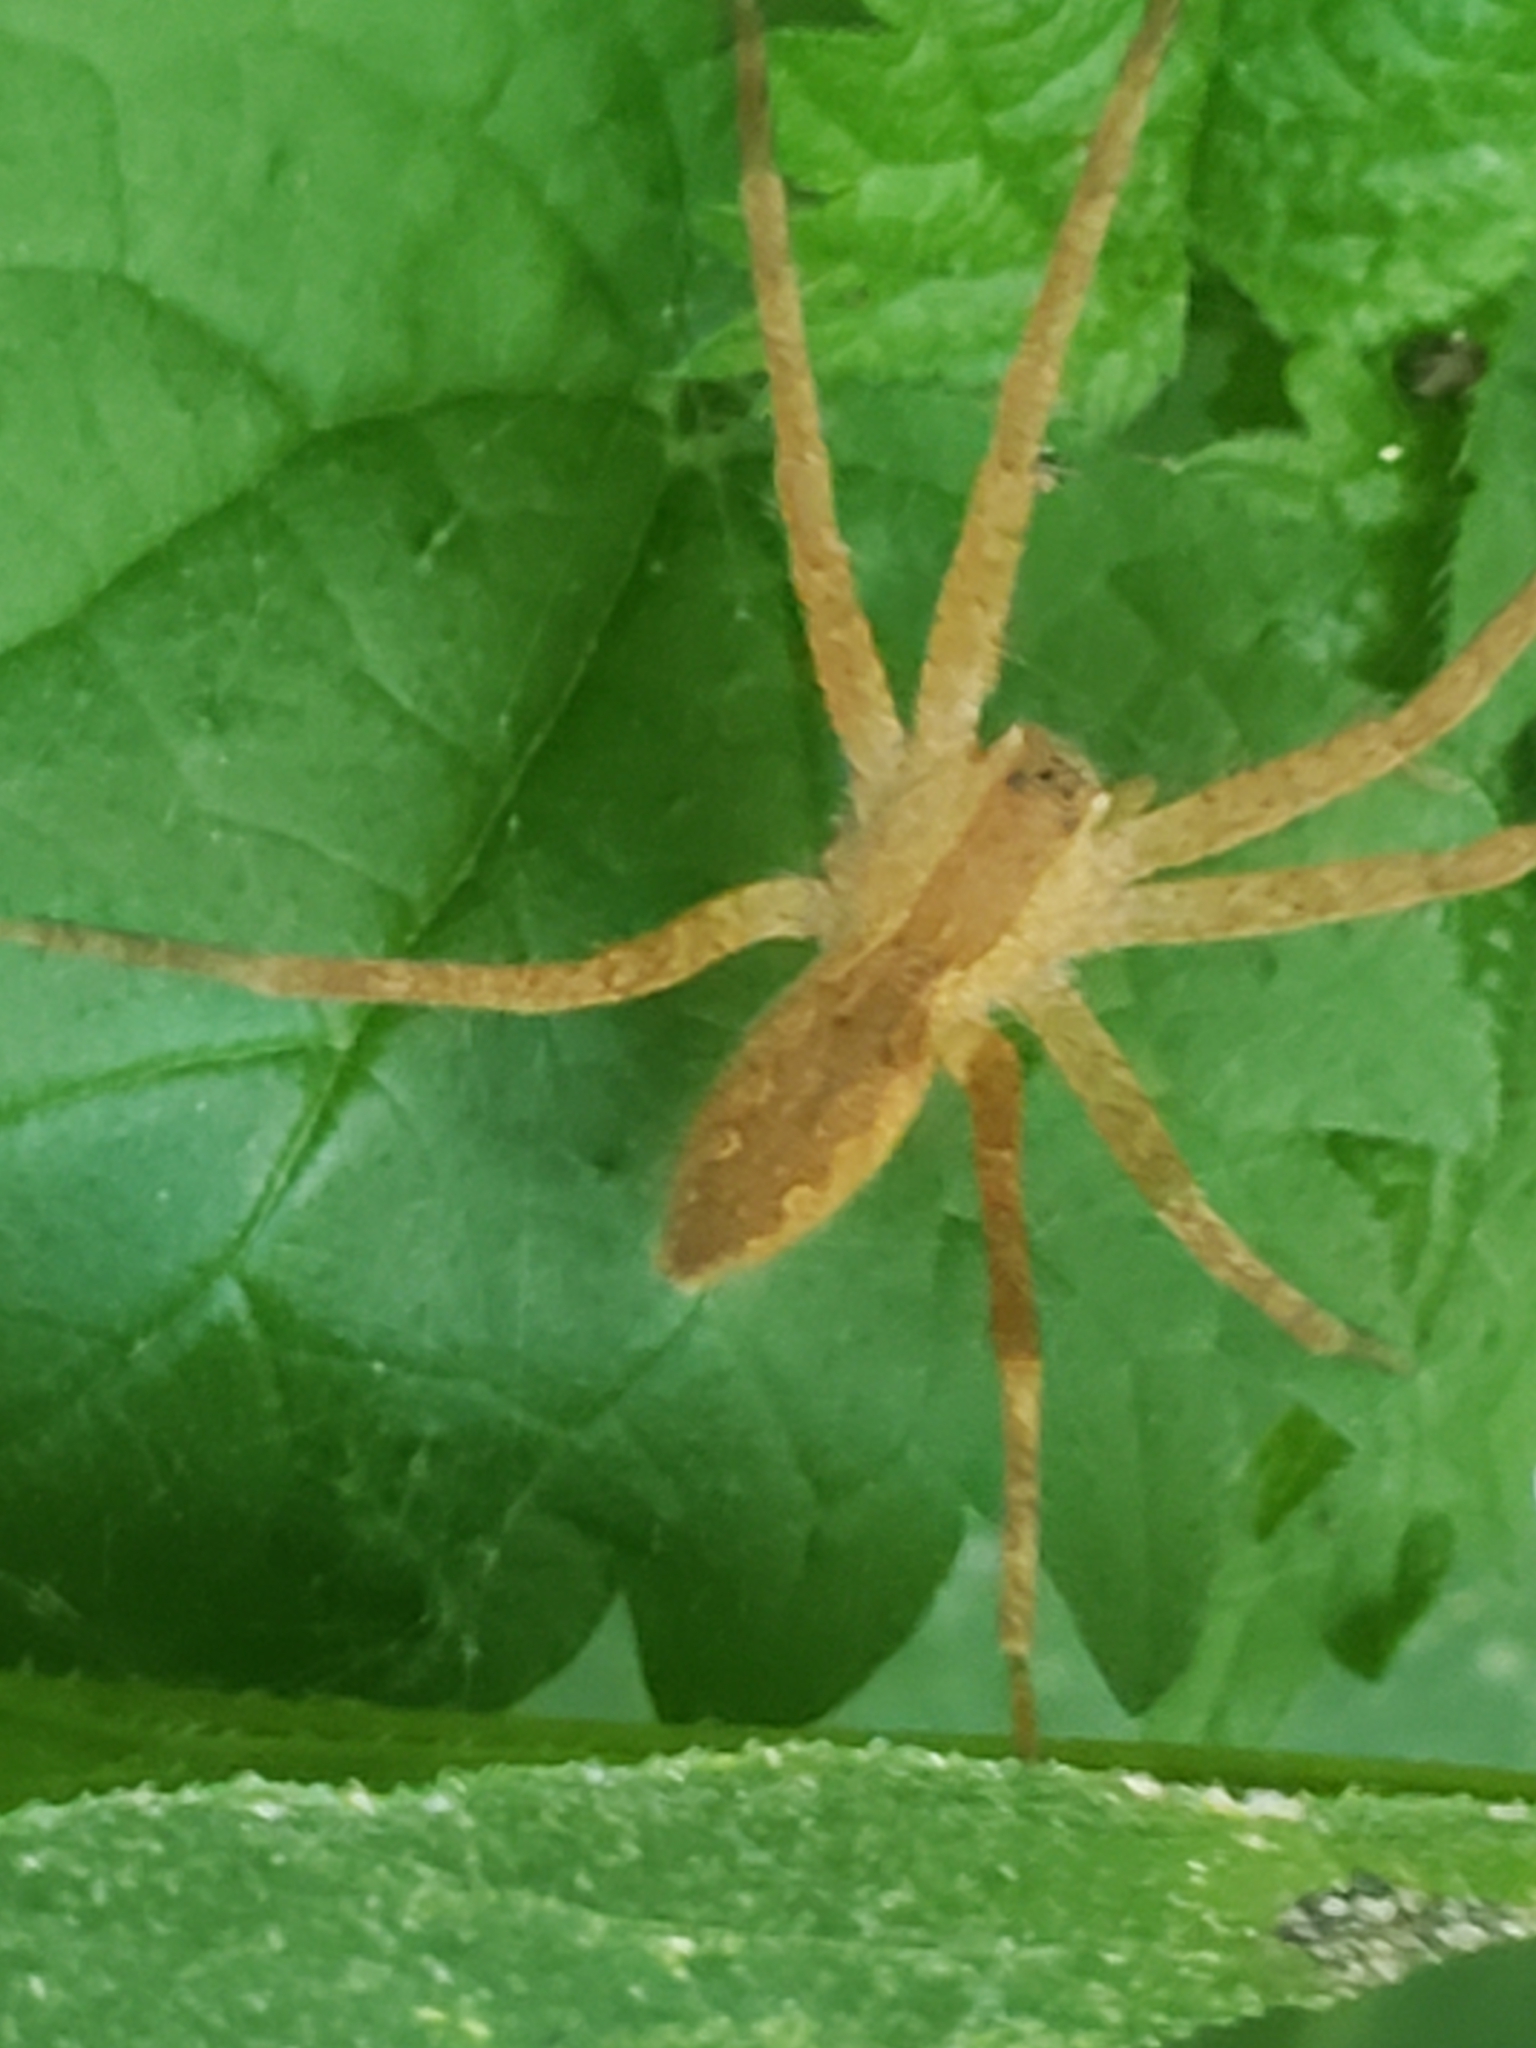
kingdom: Animalia
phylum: Arthropoda
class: Arachnida
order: Araneae
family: Pisauridae
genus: Pisaurina
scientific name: Pisaurina mira
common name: American nursery web spider
